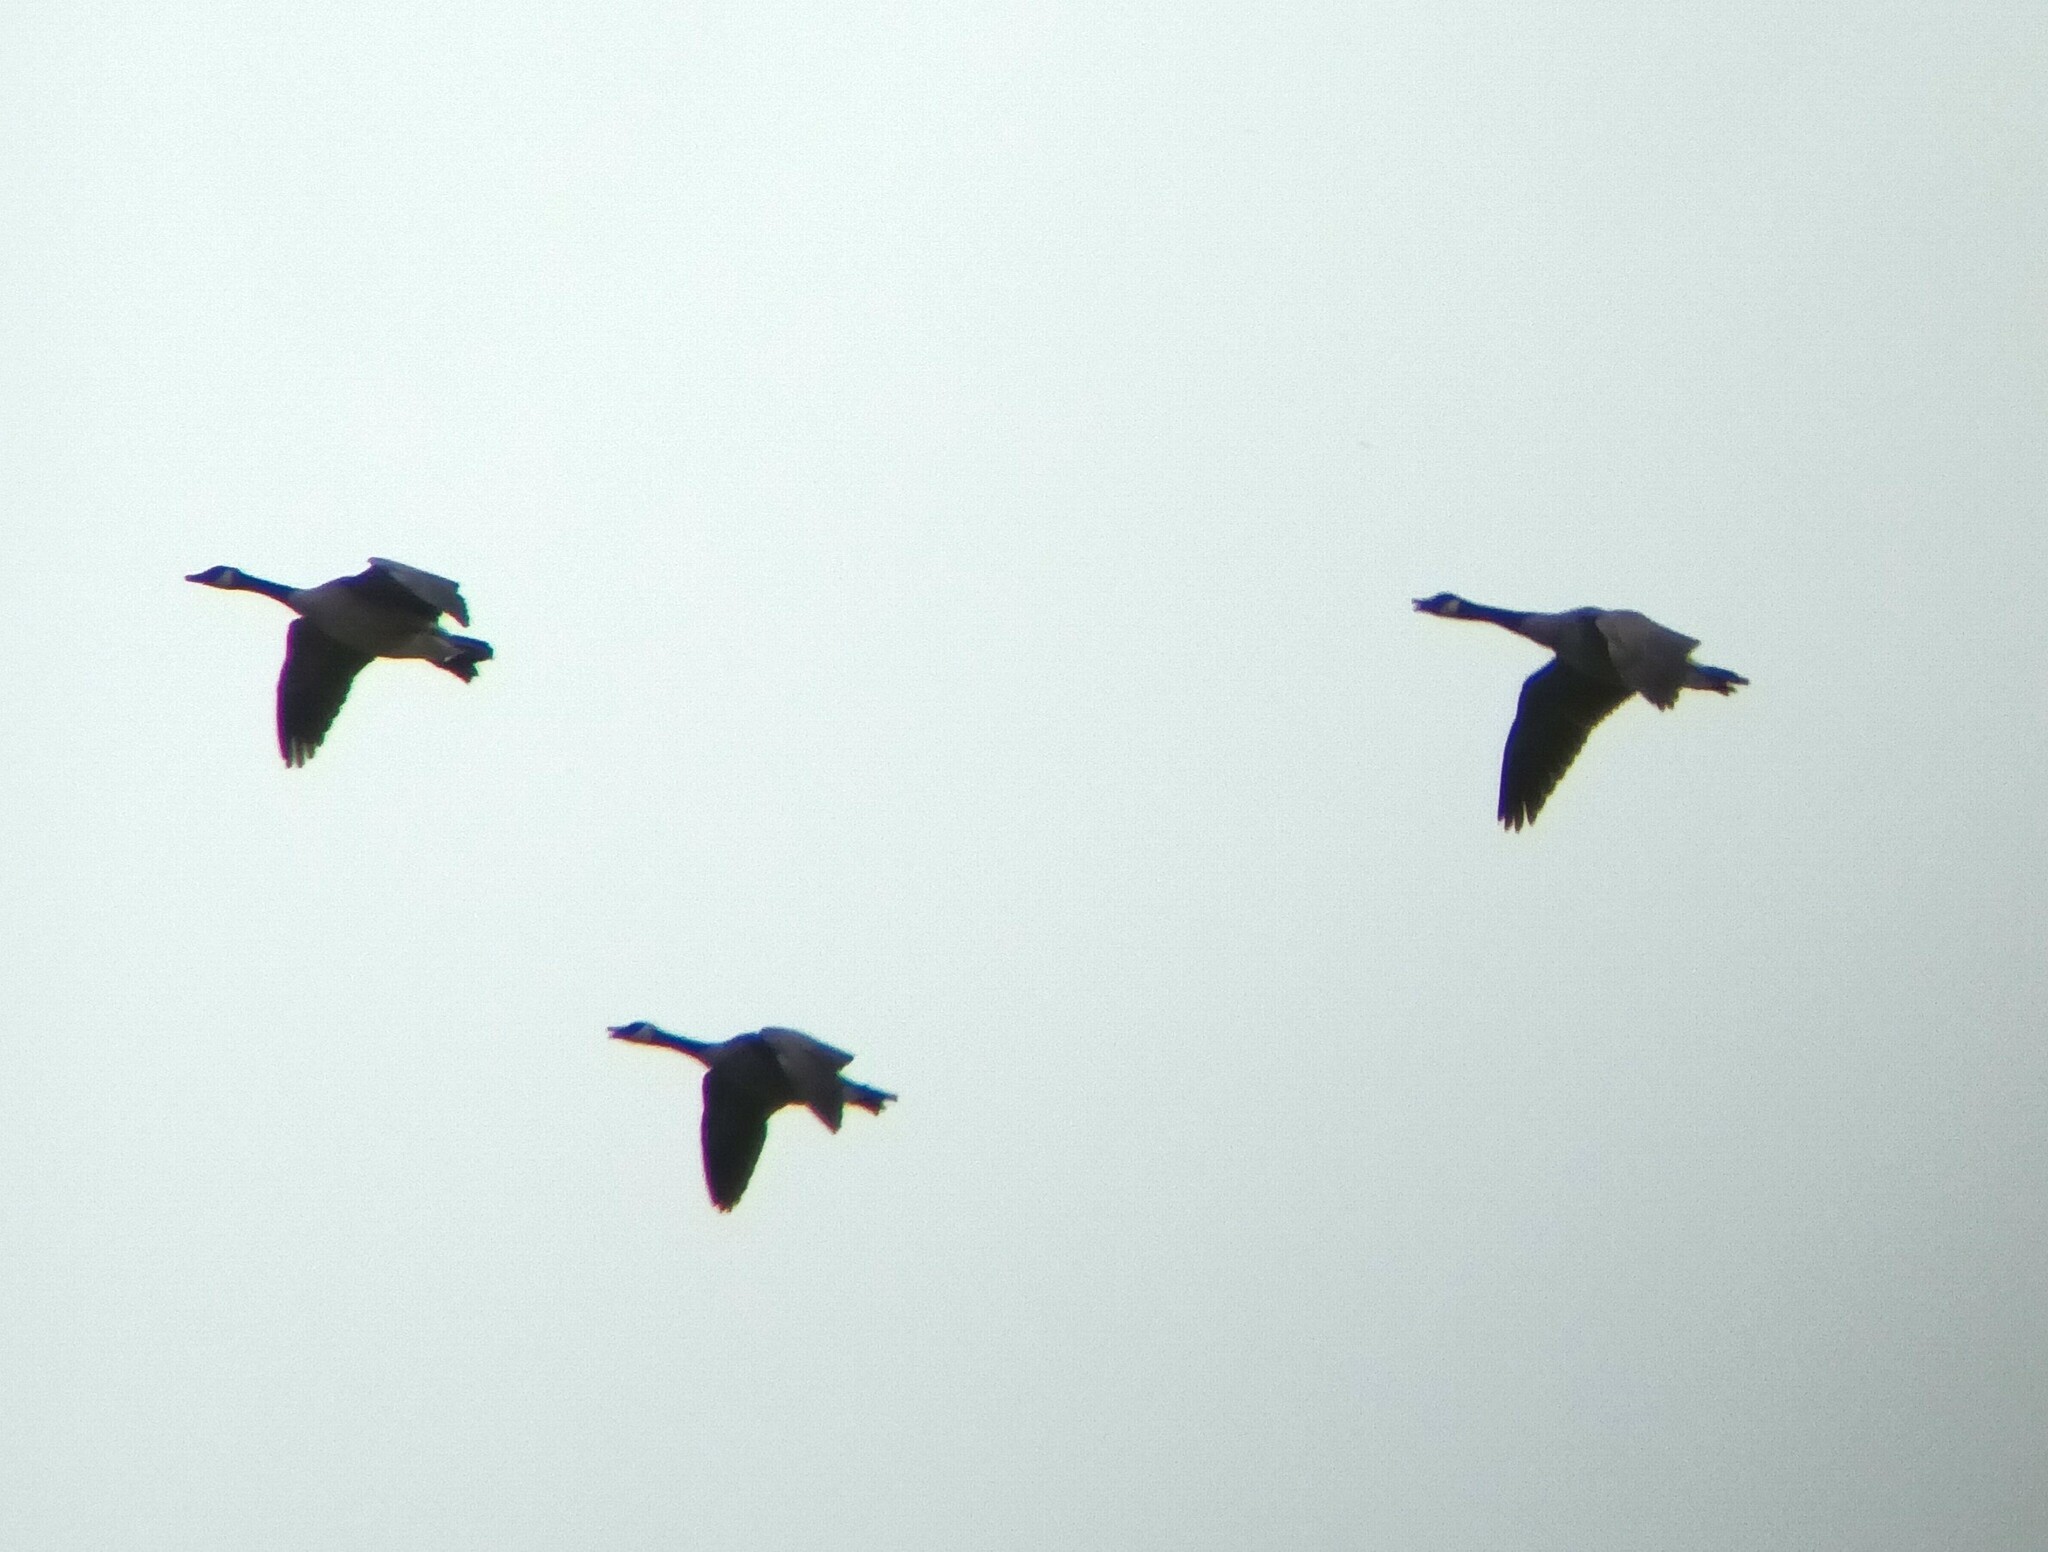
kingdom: Animalia
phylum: Chordata
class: Aves
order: Anseriformes
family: Anatidae
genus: Branta
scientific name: Branta canadensis
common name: Canada goose
